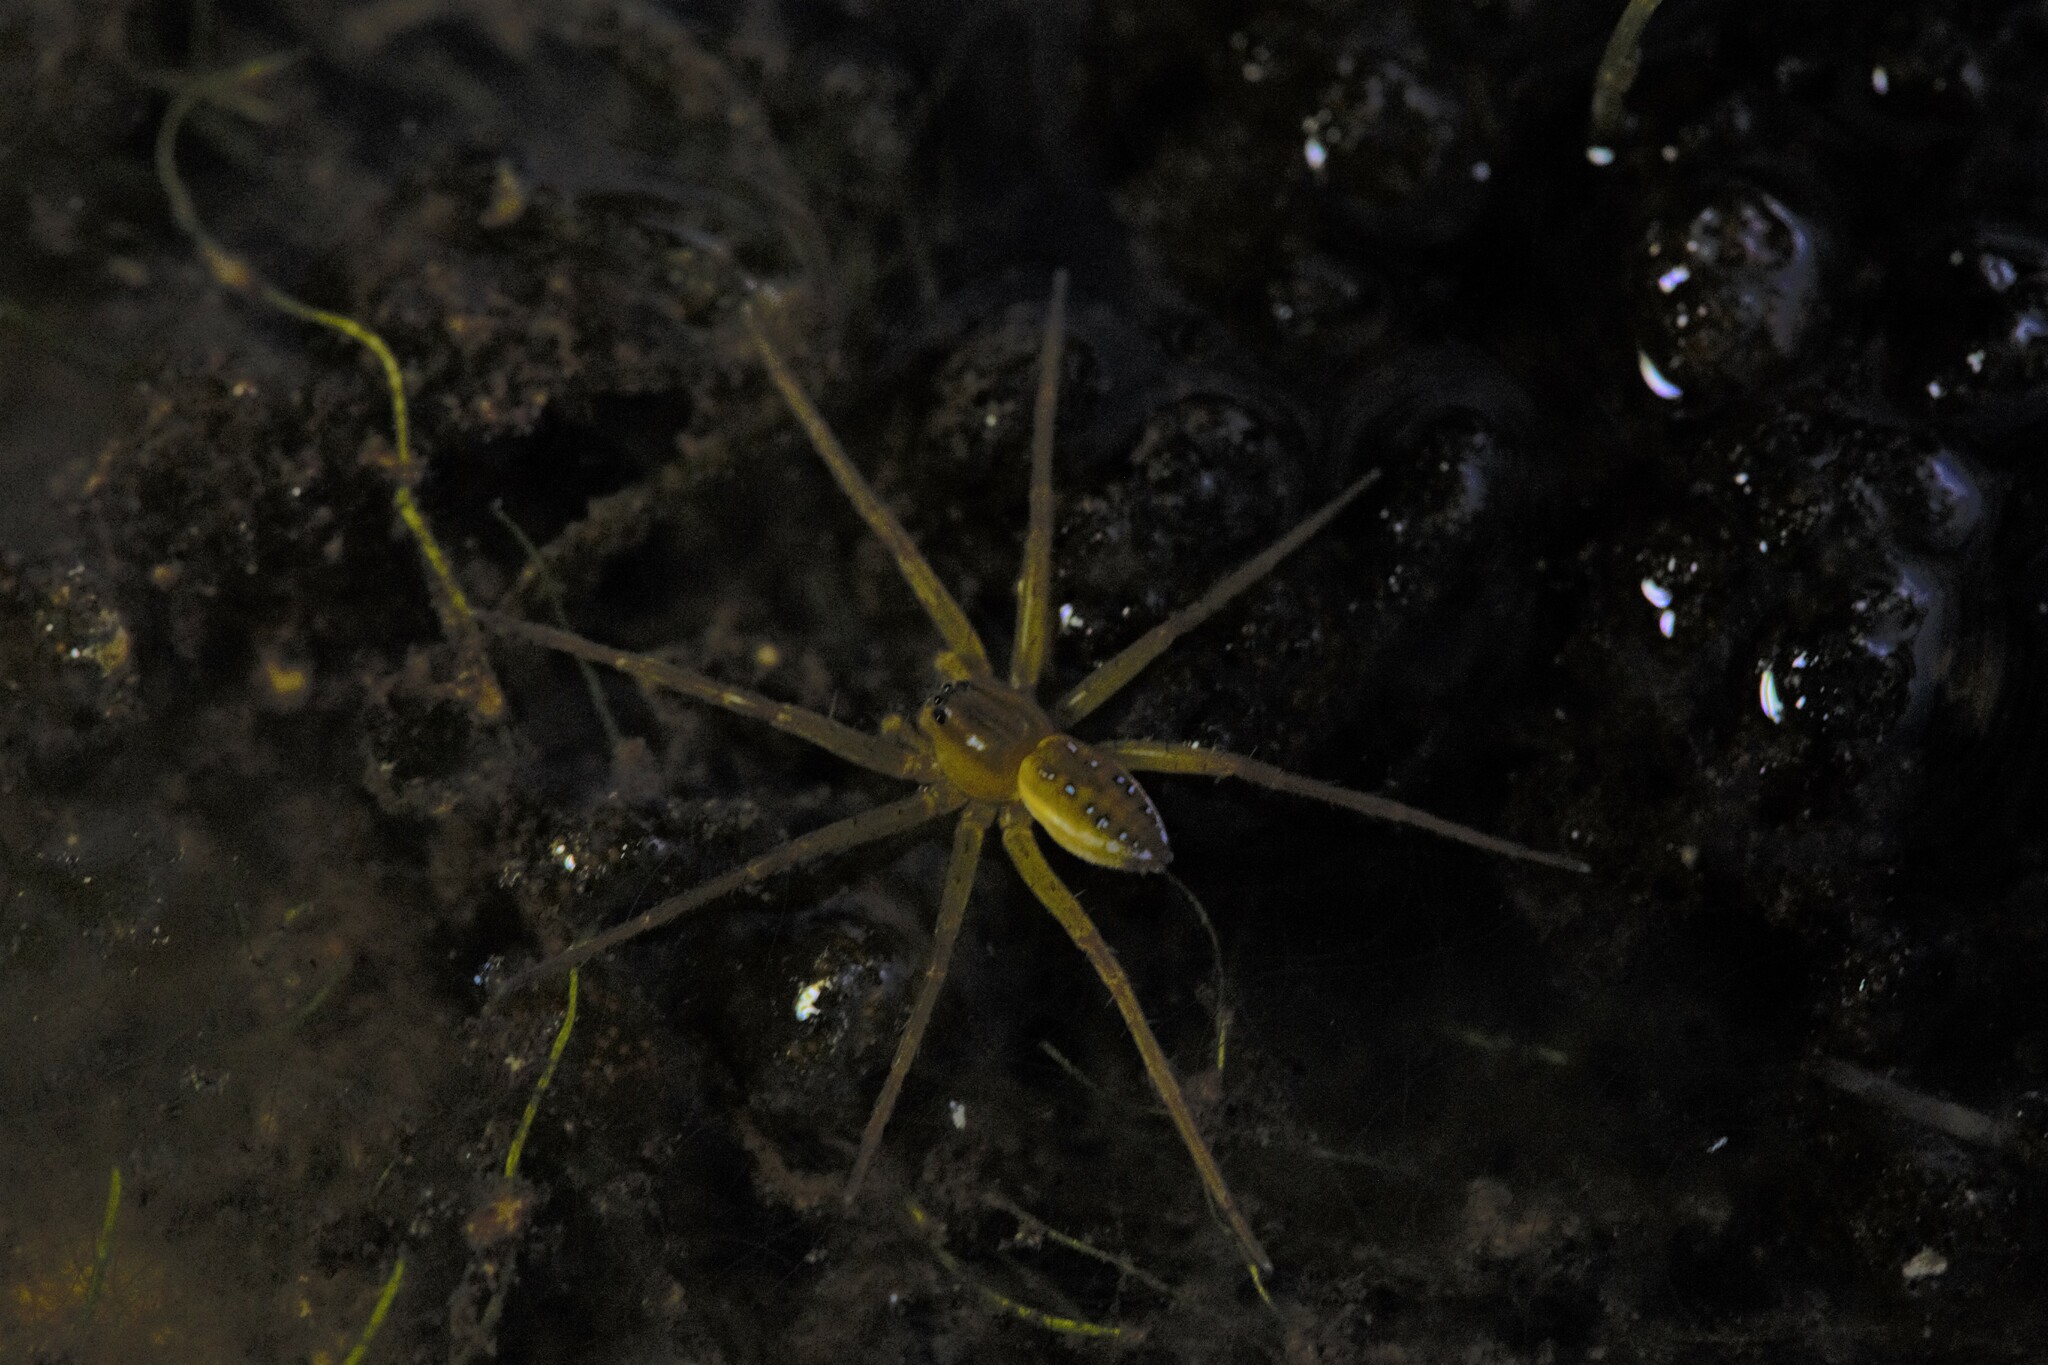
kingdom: Animalia
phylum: Arthropoda
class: Arachnida
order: Araneae
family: Pisauridae
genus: Dolomedes
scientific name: Dolomedes facetus
